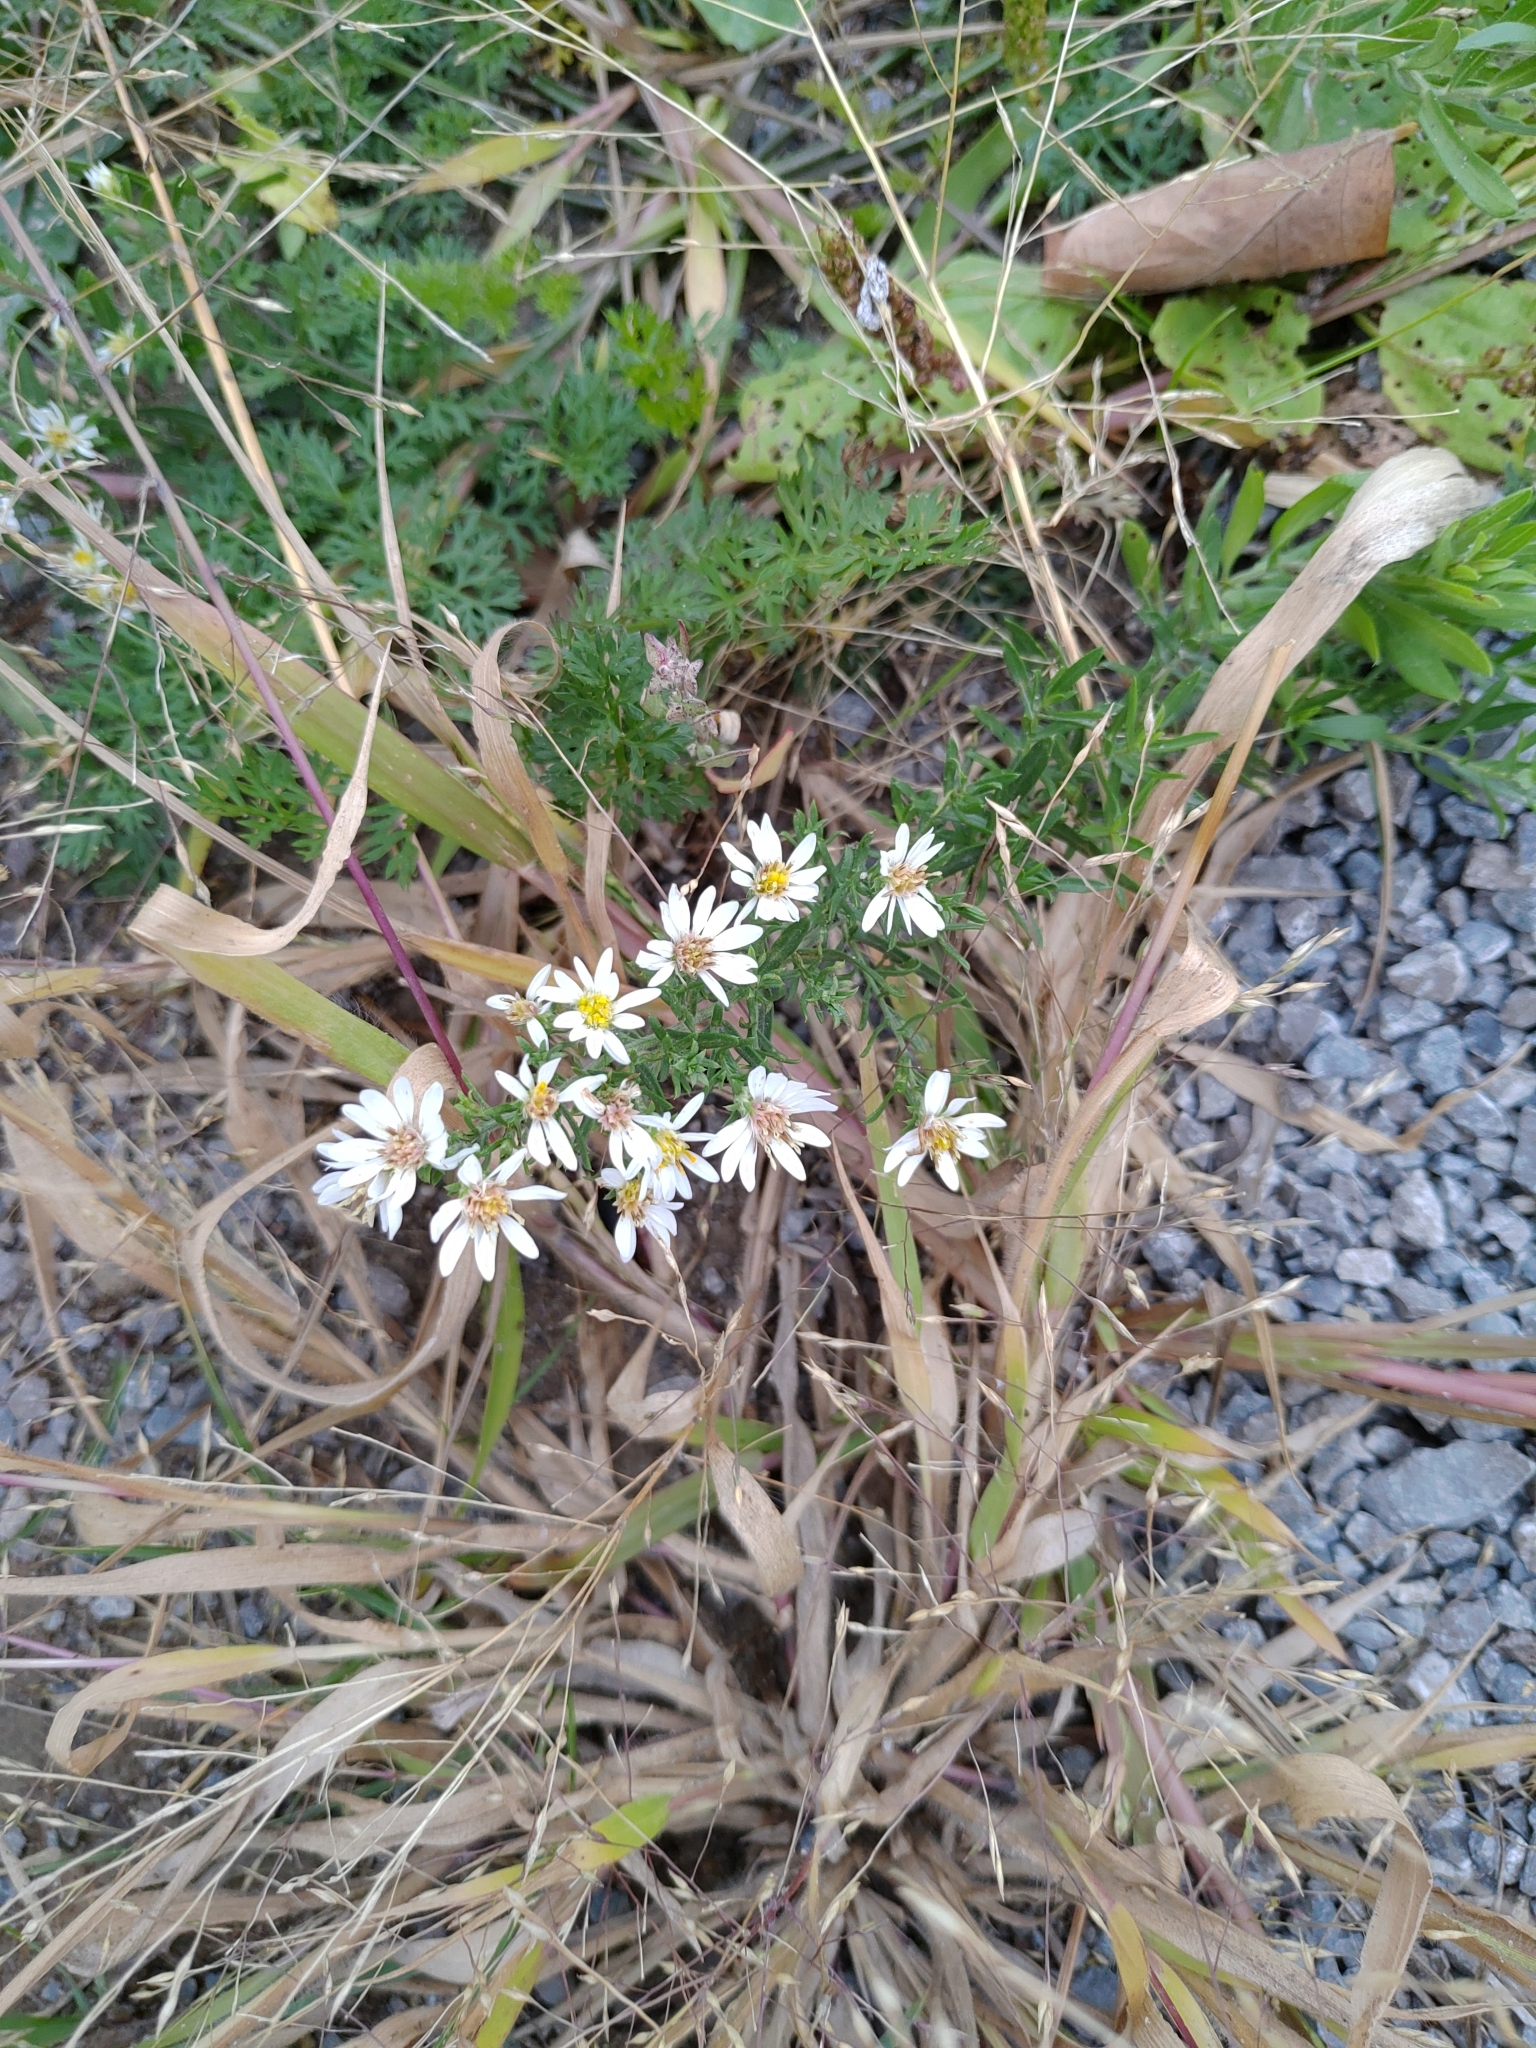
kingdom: Plantae
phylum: Tracheophyta
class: Magnoliopsida
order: Asterales
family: Asteraceae
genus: Symphyotrichum
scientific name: Symphyotrichum ericoides
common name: Heath aster
